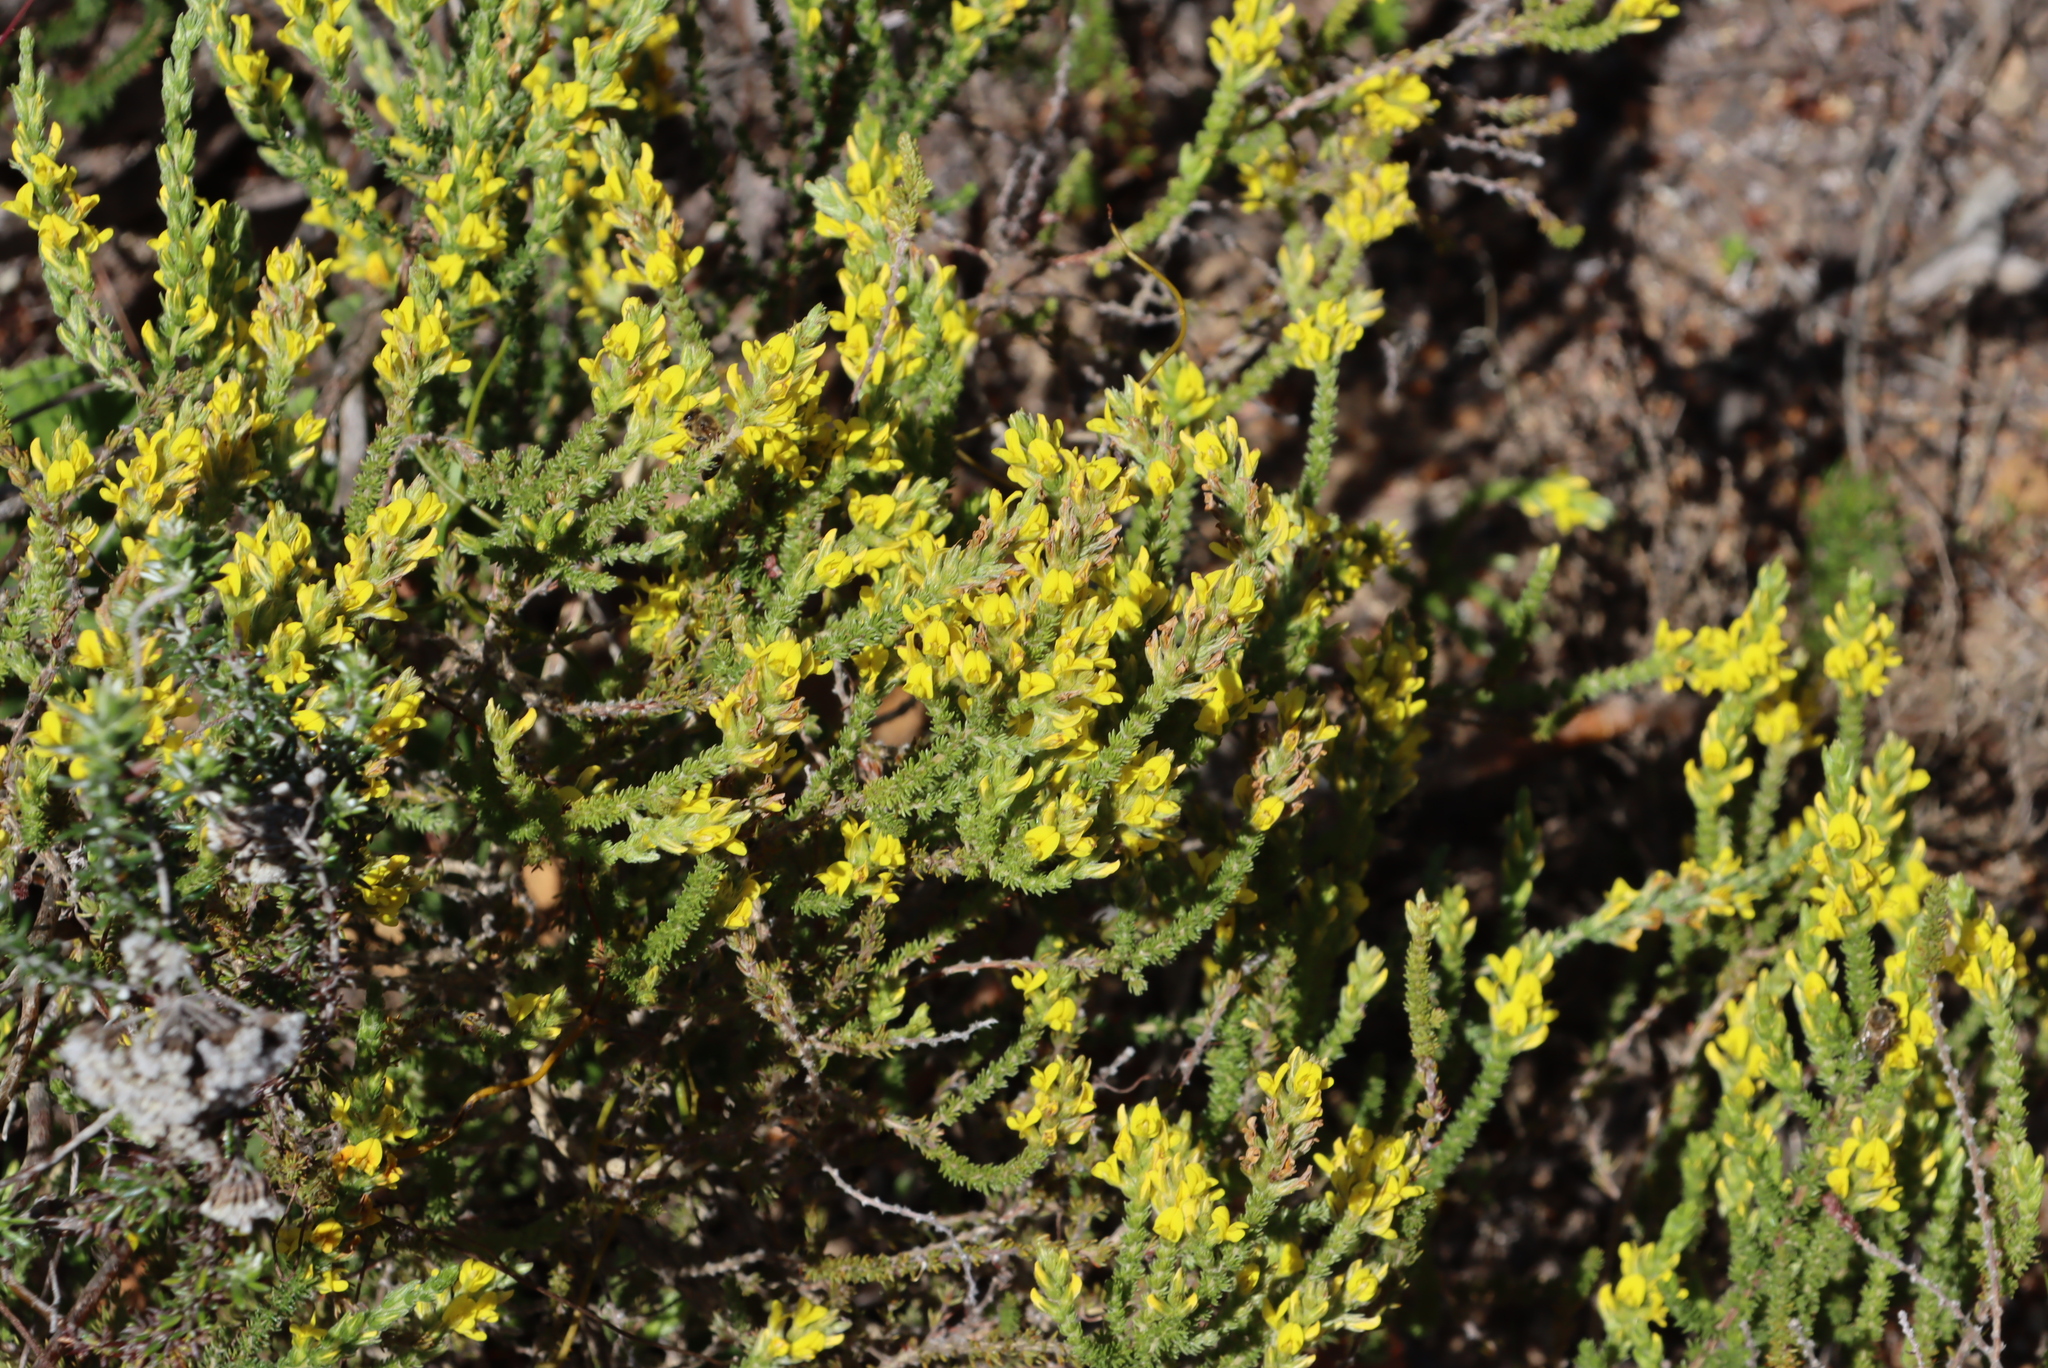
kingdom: Plantae
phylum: Tracheophyta
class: Magnoliopsida
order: Fabales
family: Fabaceae
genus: Aspalathus
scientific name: Aspalathus ericifolia
